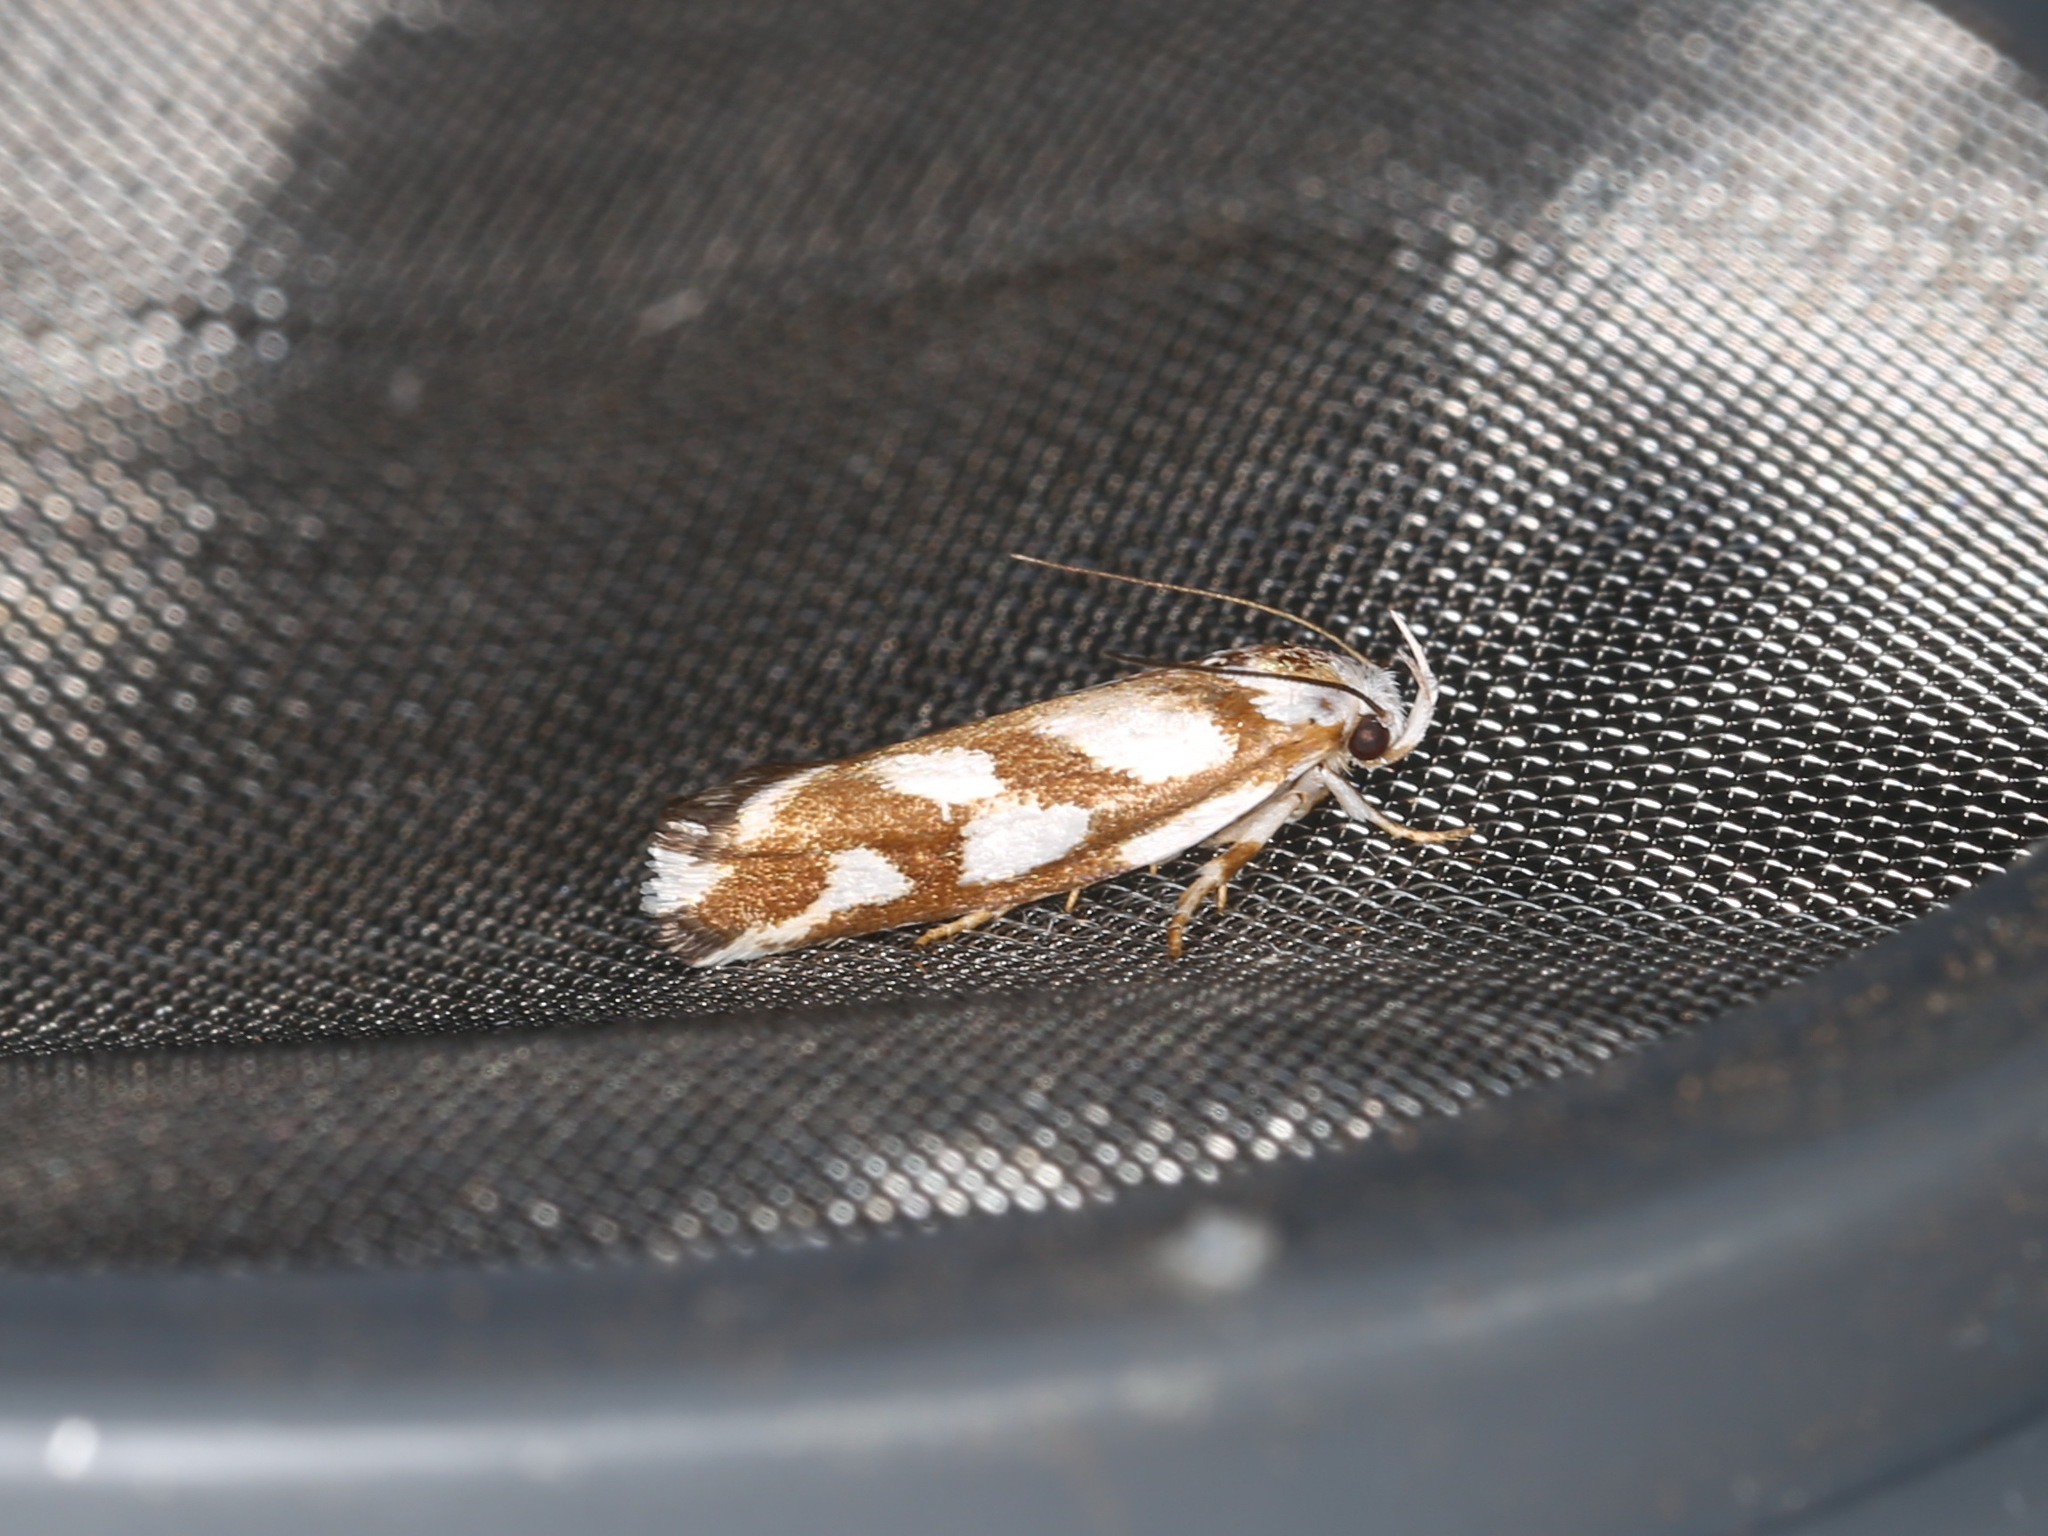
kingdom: Animalia
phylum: Arthropoda
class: Insecta
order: Lepidoptera
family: Xyloryctidae
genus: Plectophila
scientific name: Plectophila thrasycosma
